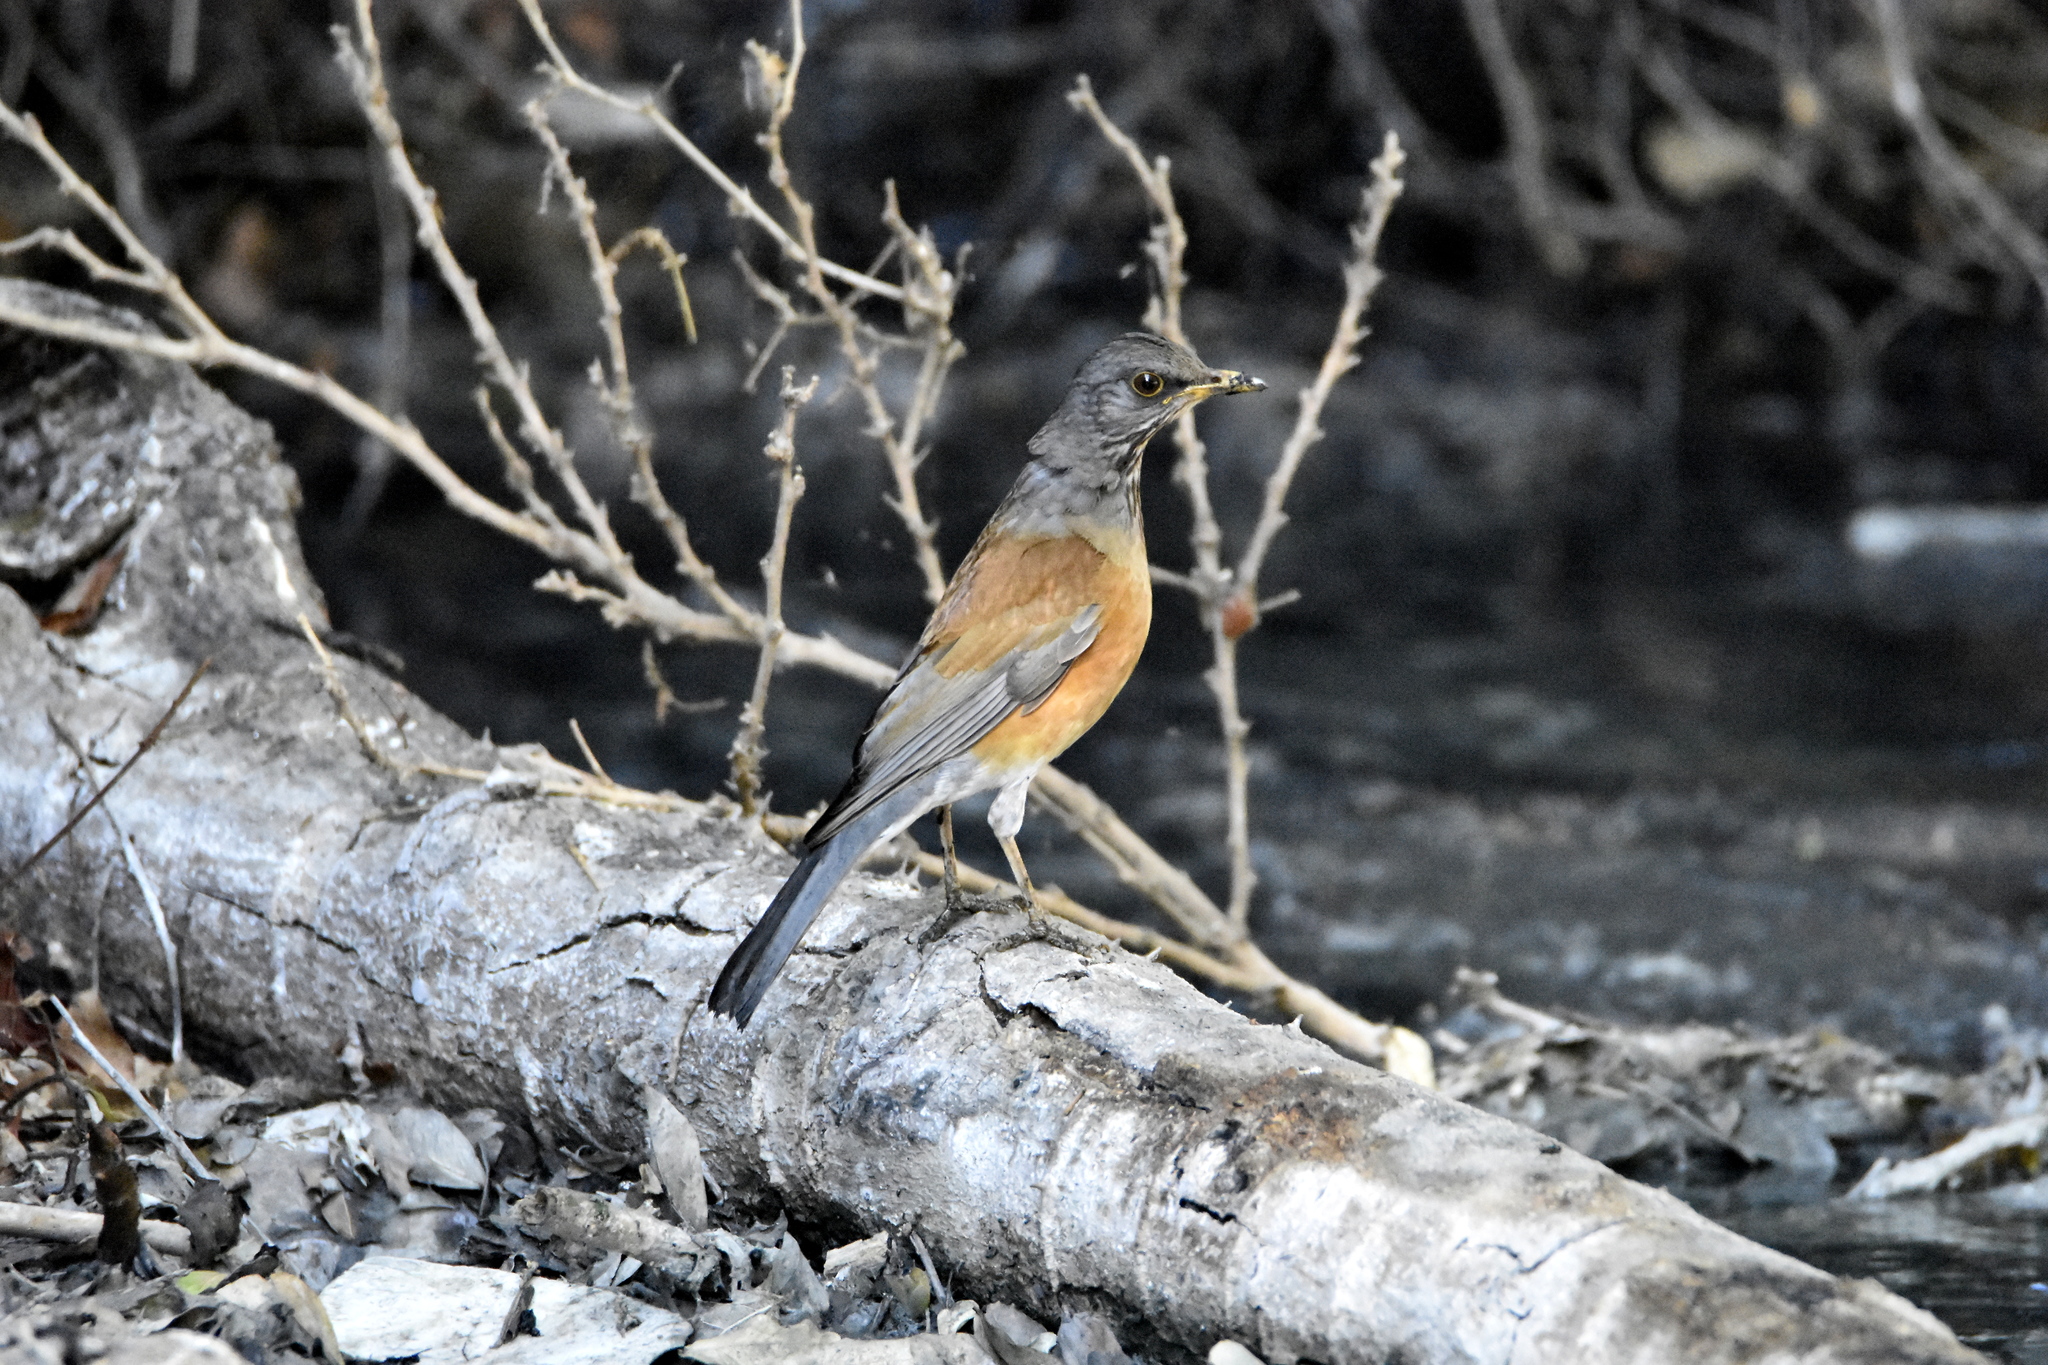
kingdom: Animalia
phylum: Chordata
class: Aves
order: Passeriformes
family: Turdidae
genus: Turdus
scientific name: Turdus rufopalliatus
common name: Rufous-backed robin
